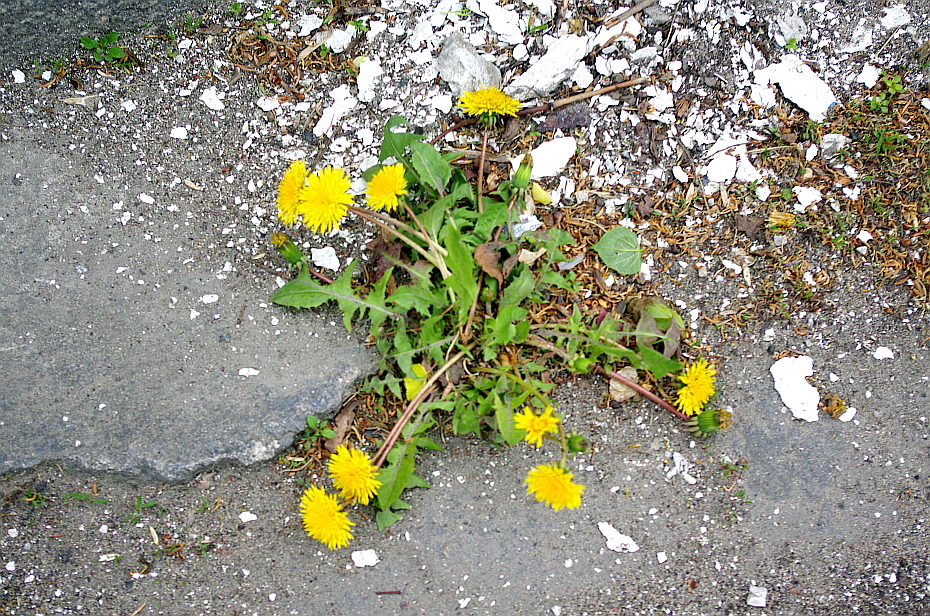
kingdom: Plantae
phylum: Tracheophyta
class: Magnoliopsida
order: Asterales
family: Asteraceae
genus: Taraxacum
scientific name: Taraxacum officinale
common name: Common dandelion
